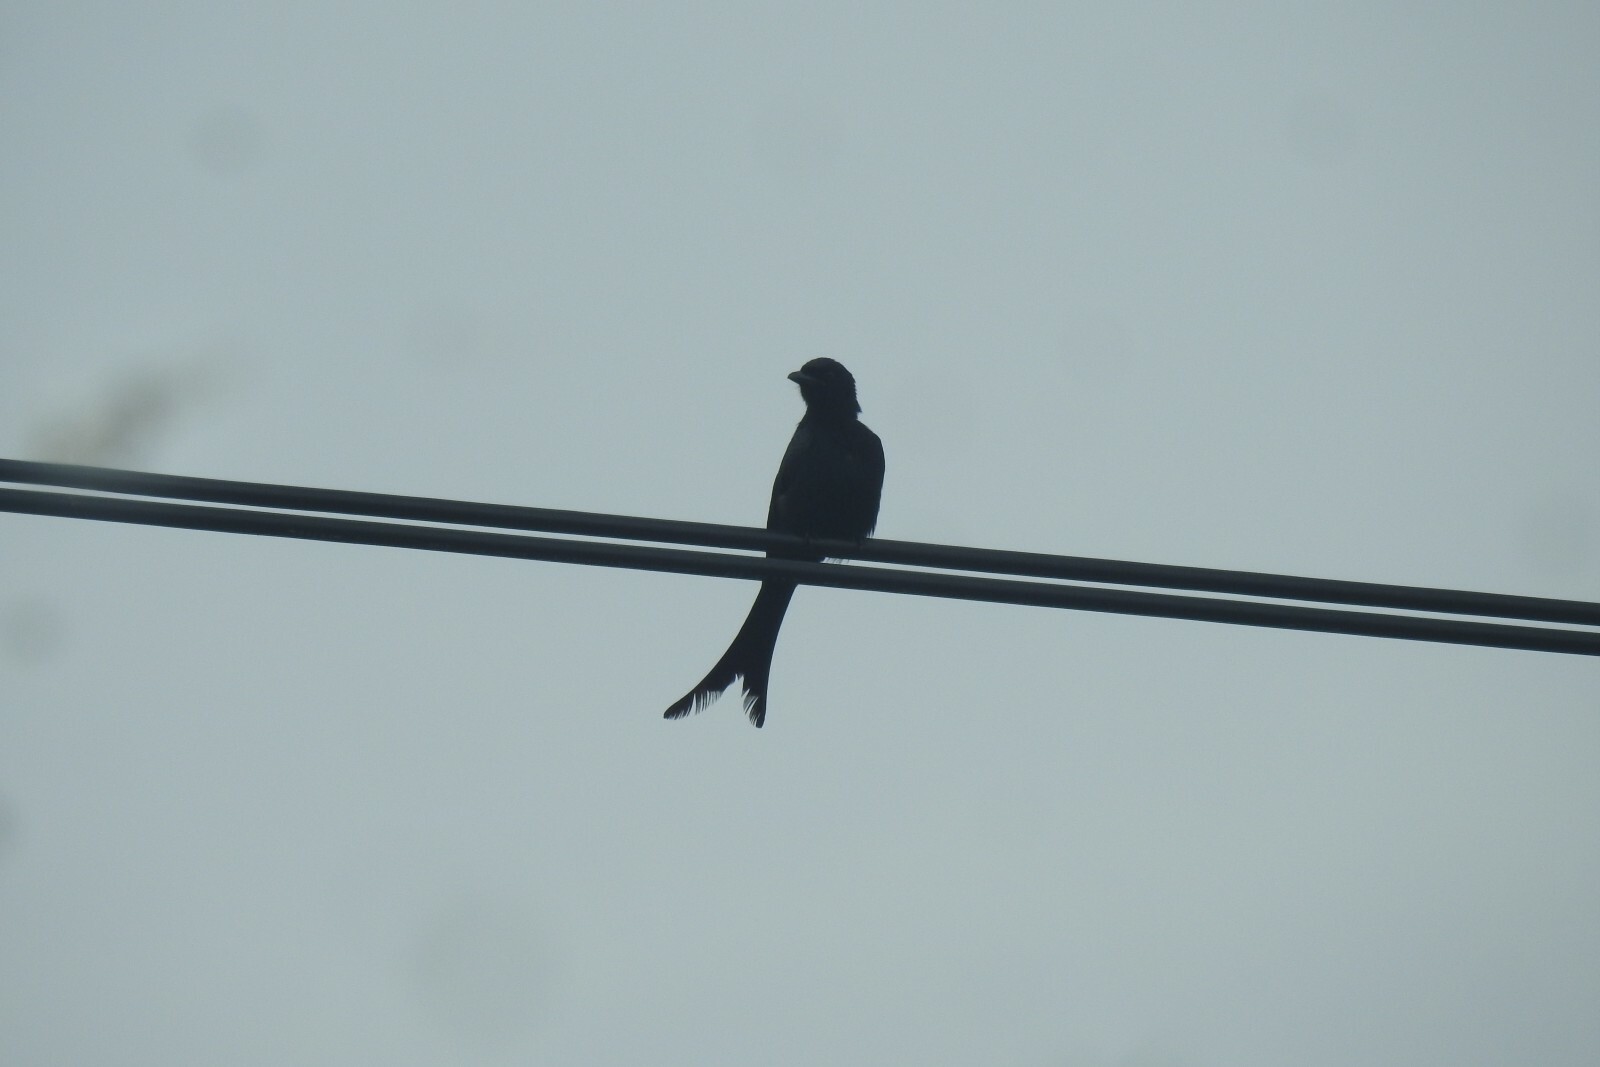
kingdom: Animalia
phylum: Chordata
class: Aves
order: Passeriformes
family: Dicruridae
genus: Dicrurus
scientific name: Dicrurus macrocercus
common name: Black drongo
